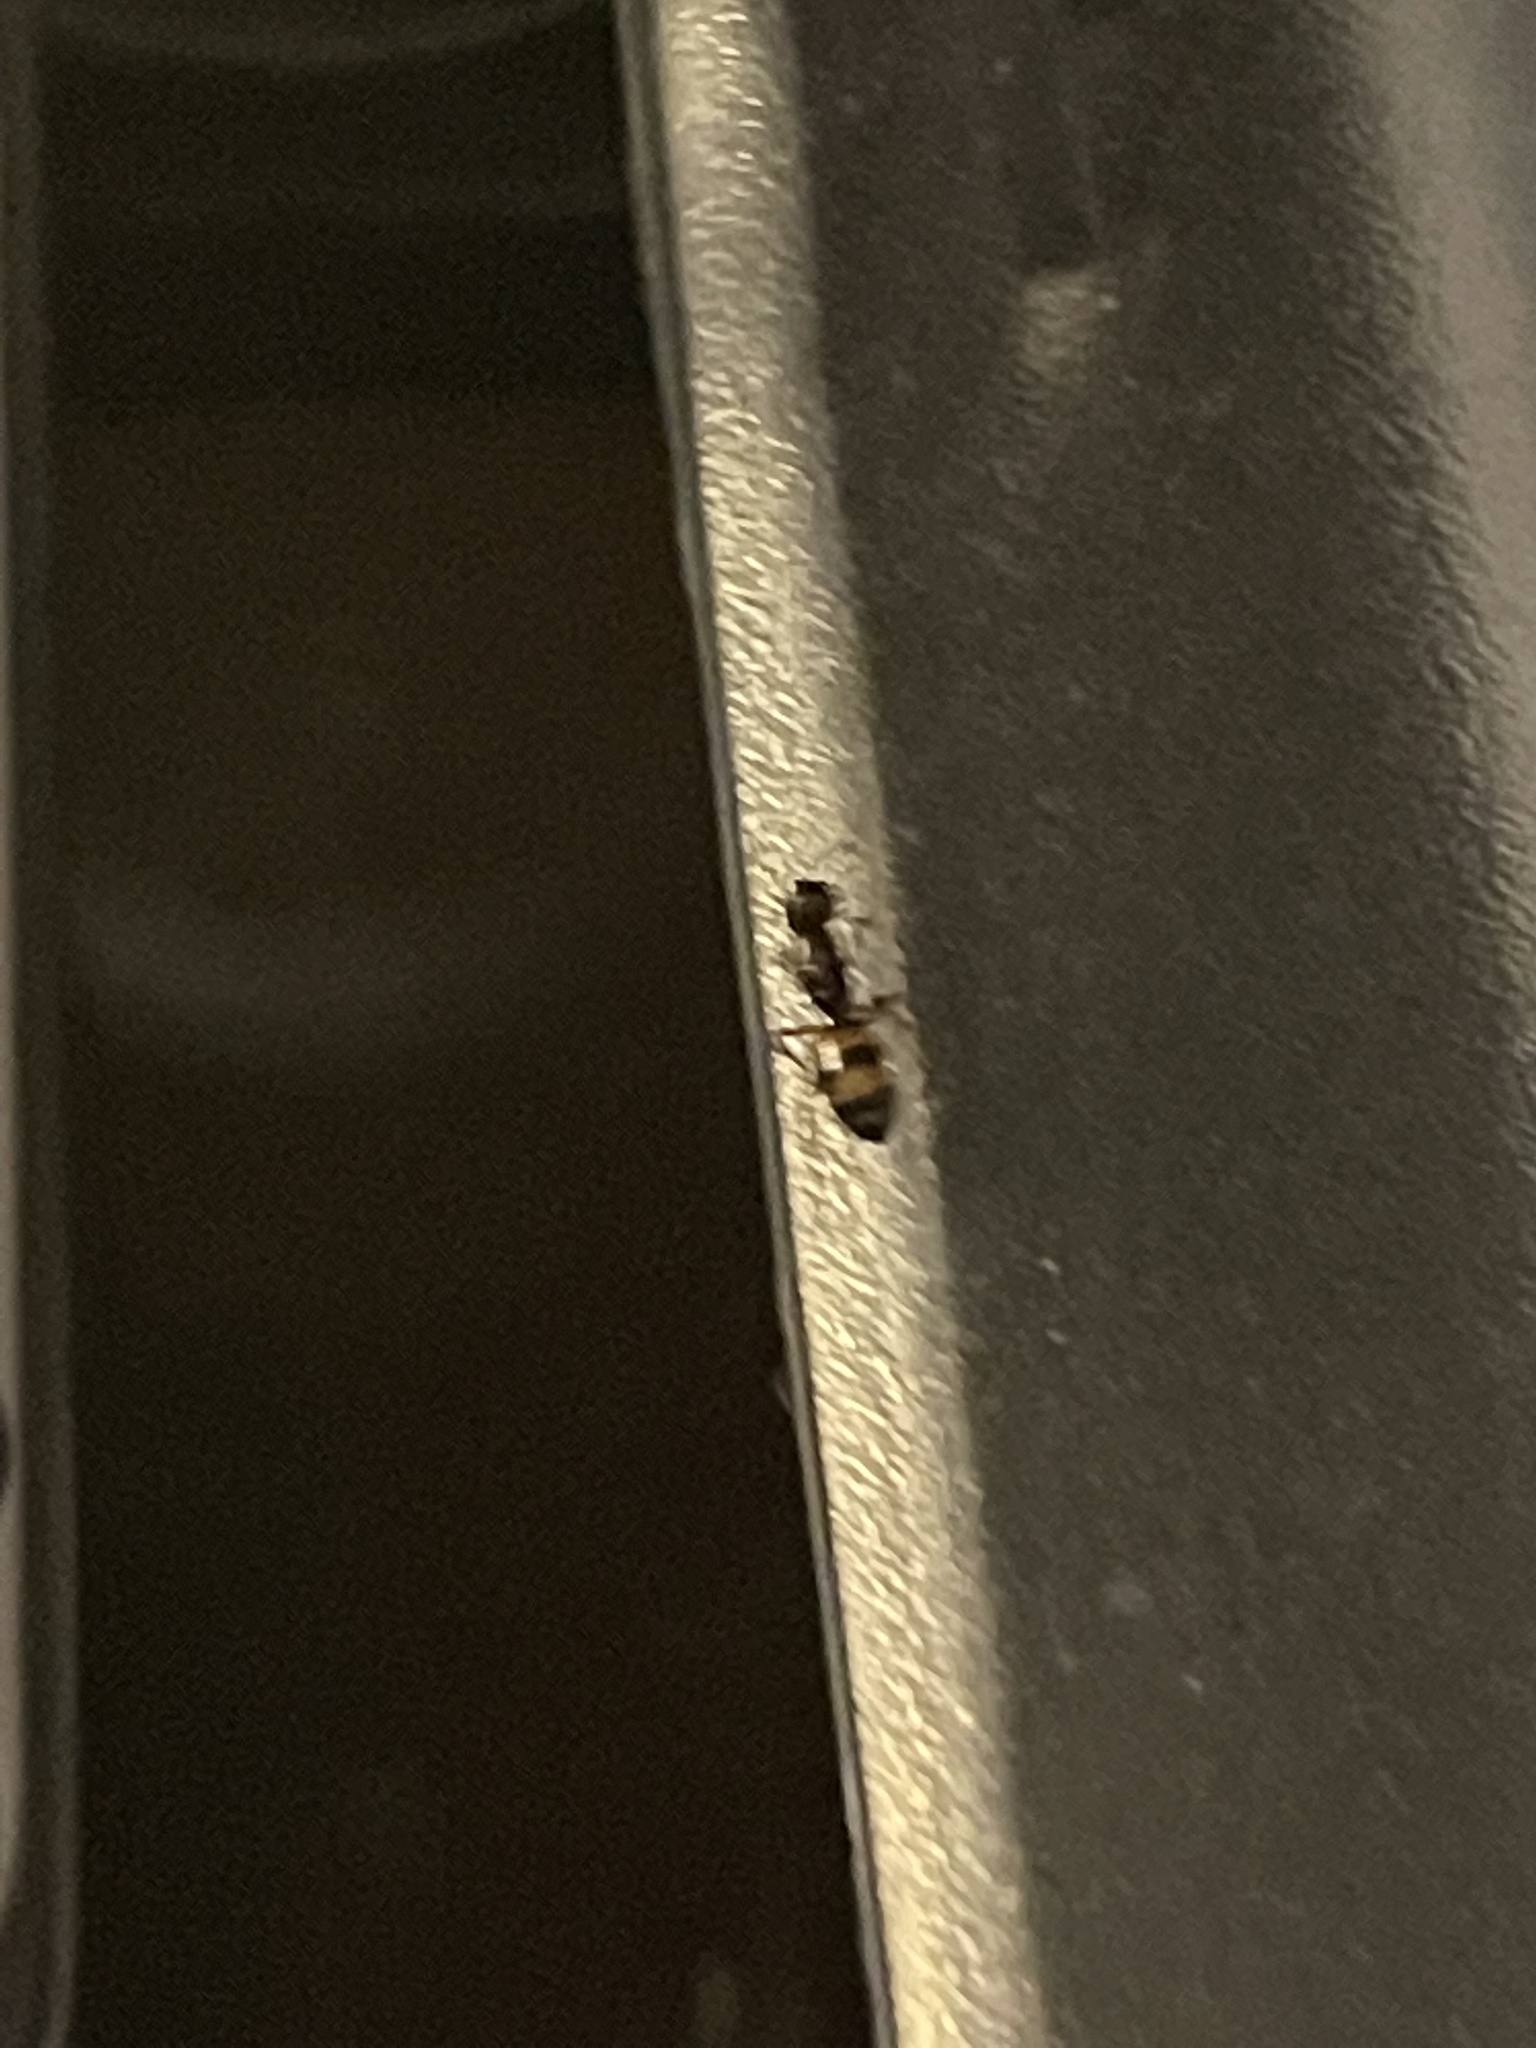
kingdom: Animalia
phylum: Arthropoda
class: Insecta
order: Hymenoptera
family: Formicidae
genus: Camponotus
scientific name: Camponotus subbarbatus
